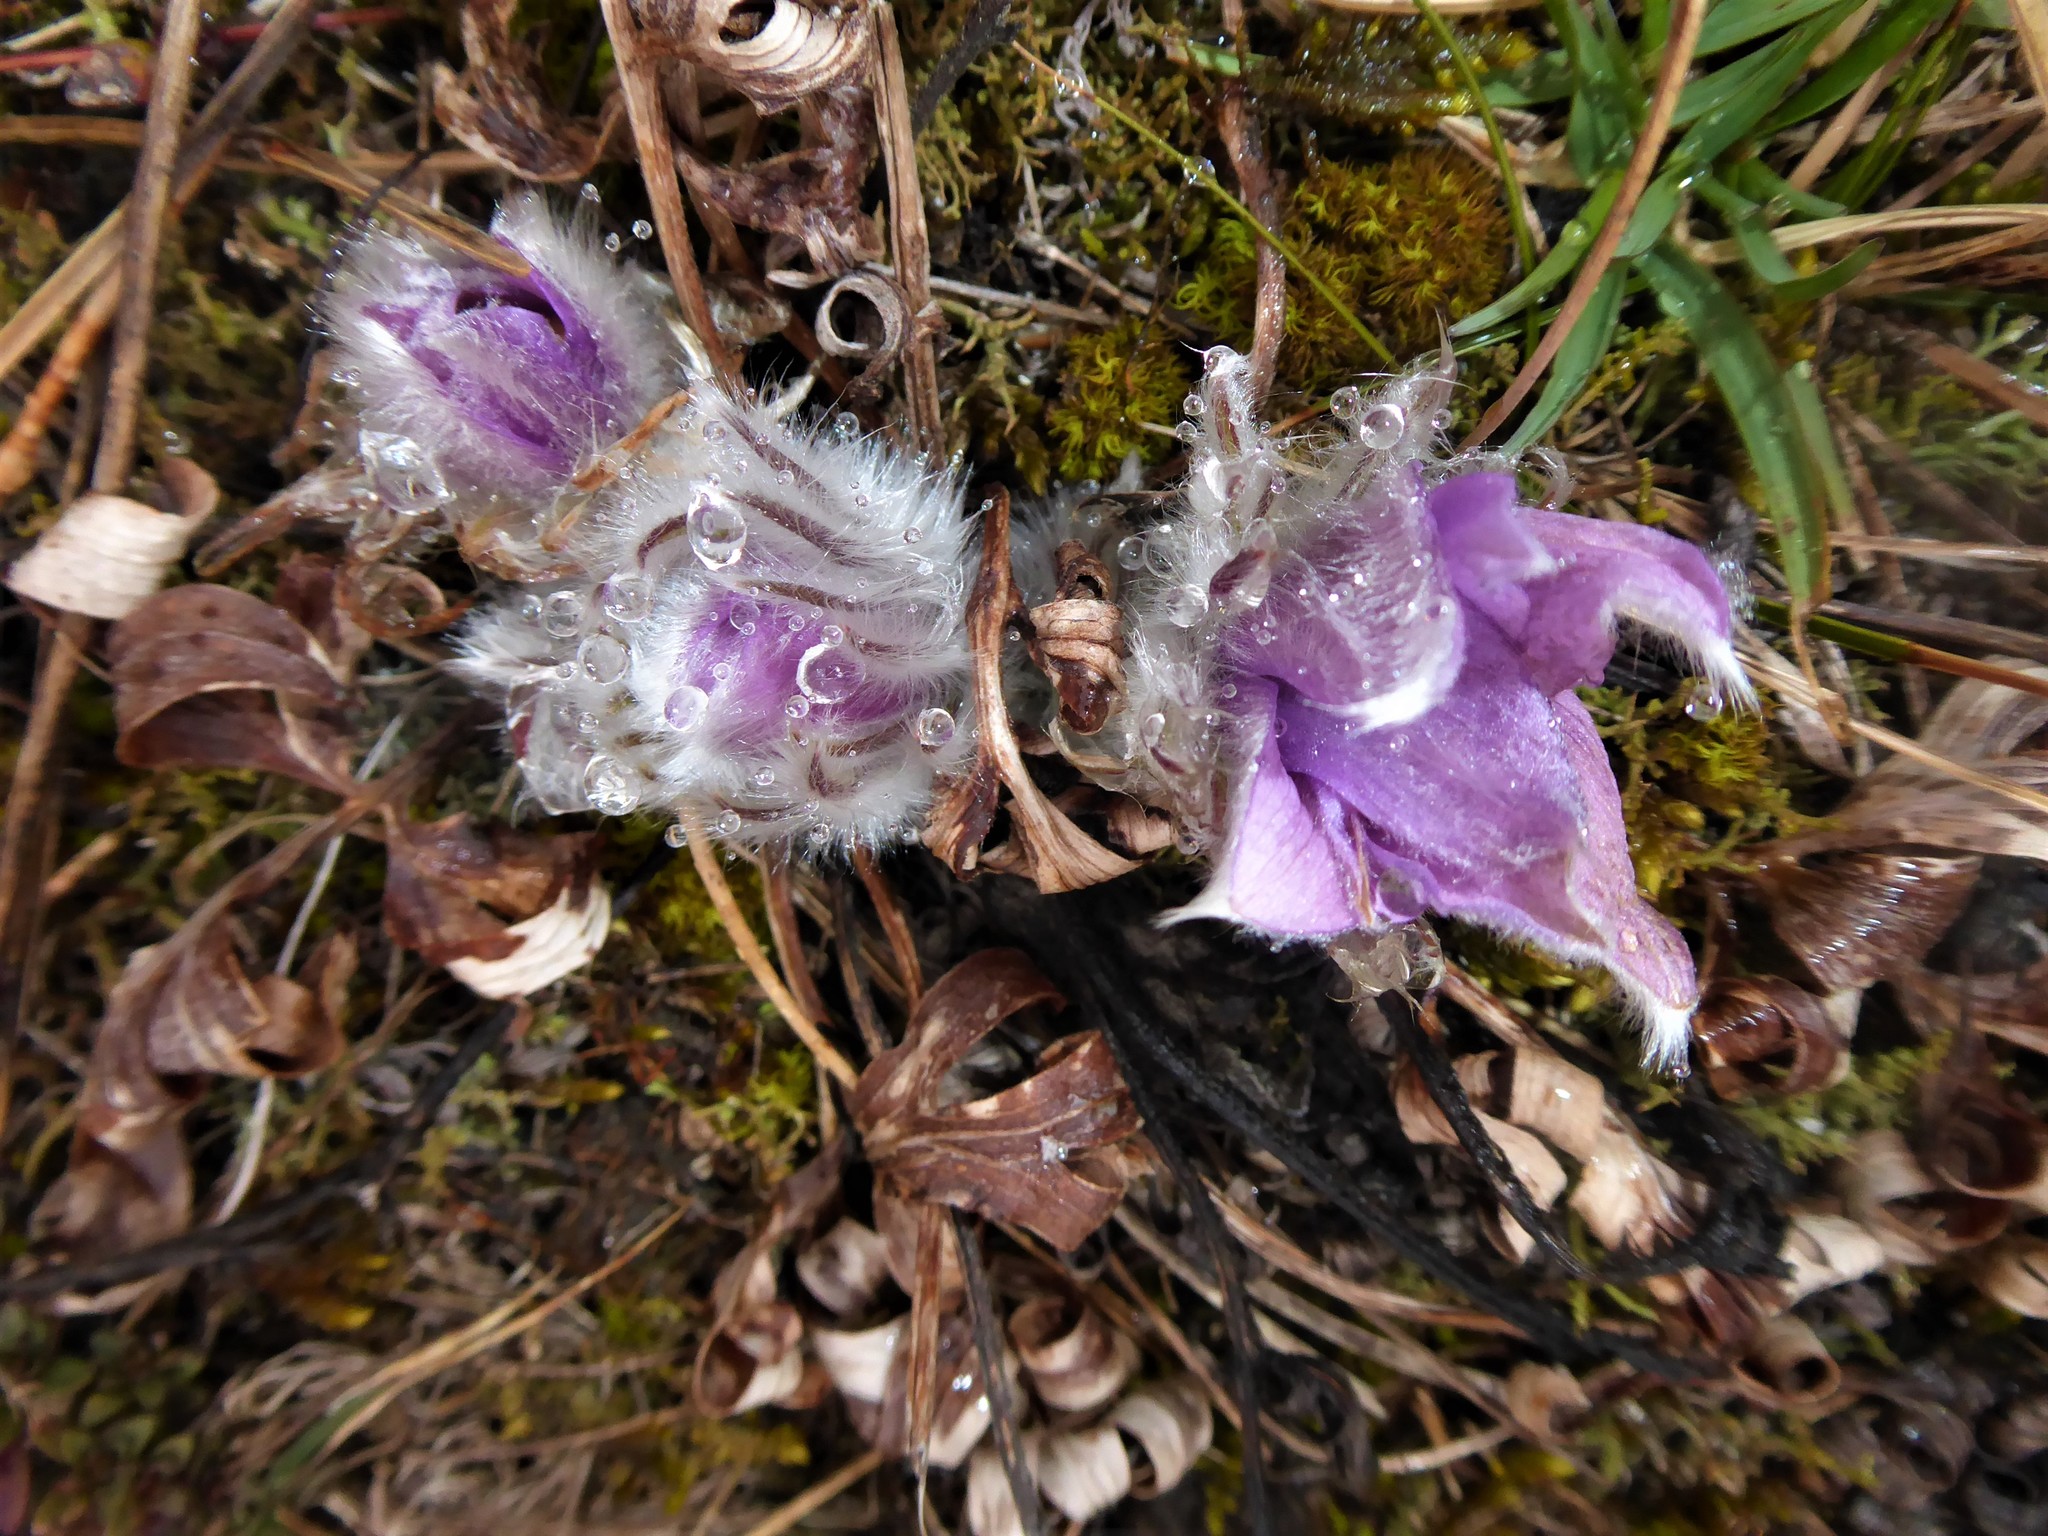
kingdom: Plantae
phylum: Tracheophyta
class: Magnoliopsida
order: Ranunculales
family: Ranunculaceae
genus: Pulsatilla
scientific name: Pulsatilla grandis
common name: Greater pasque flower
